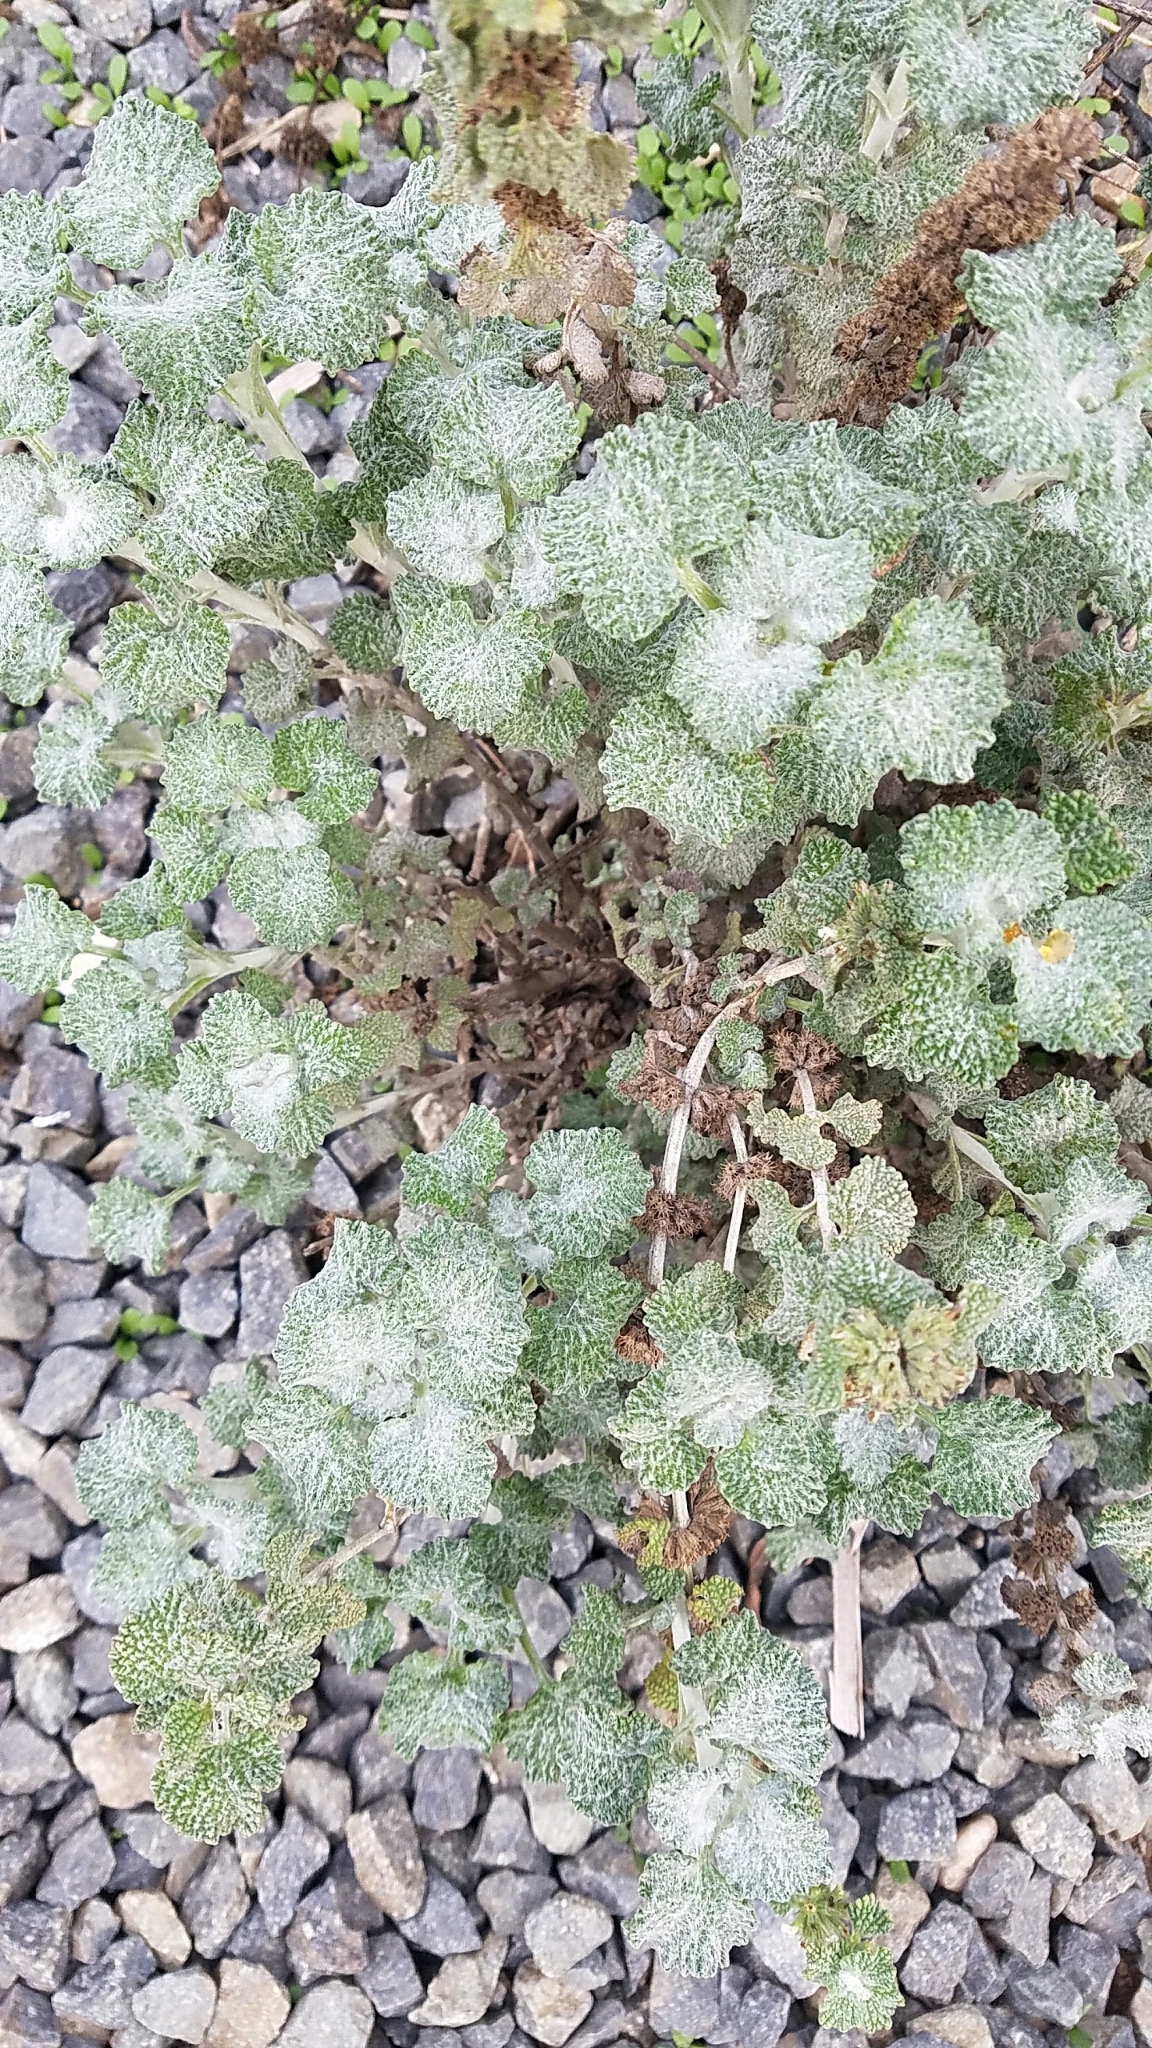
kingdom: Plantae
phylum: Tracheophyta
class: Magnoliopsida
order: Lamiales
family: Lamiaceae
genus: Marrubium
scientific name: Marrubium vulgare
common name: Horehound
